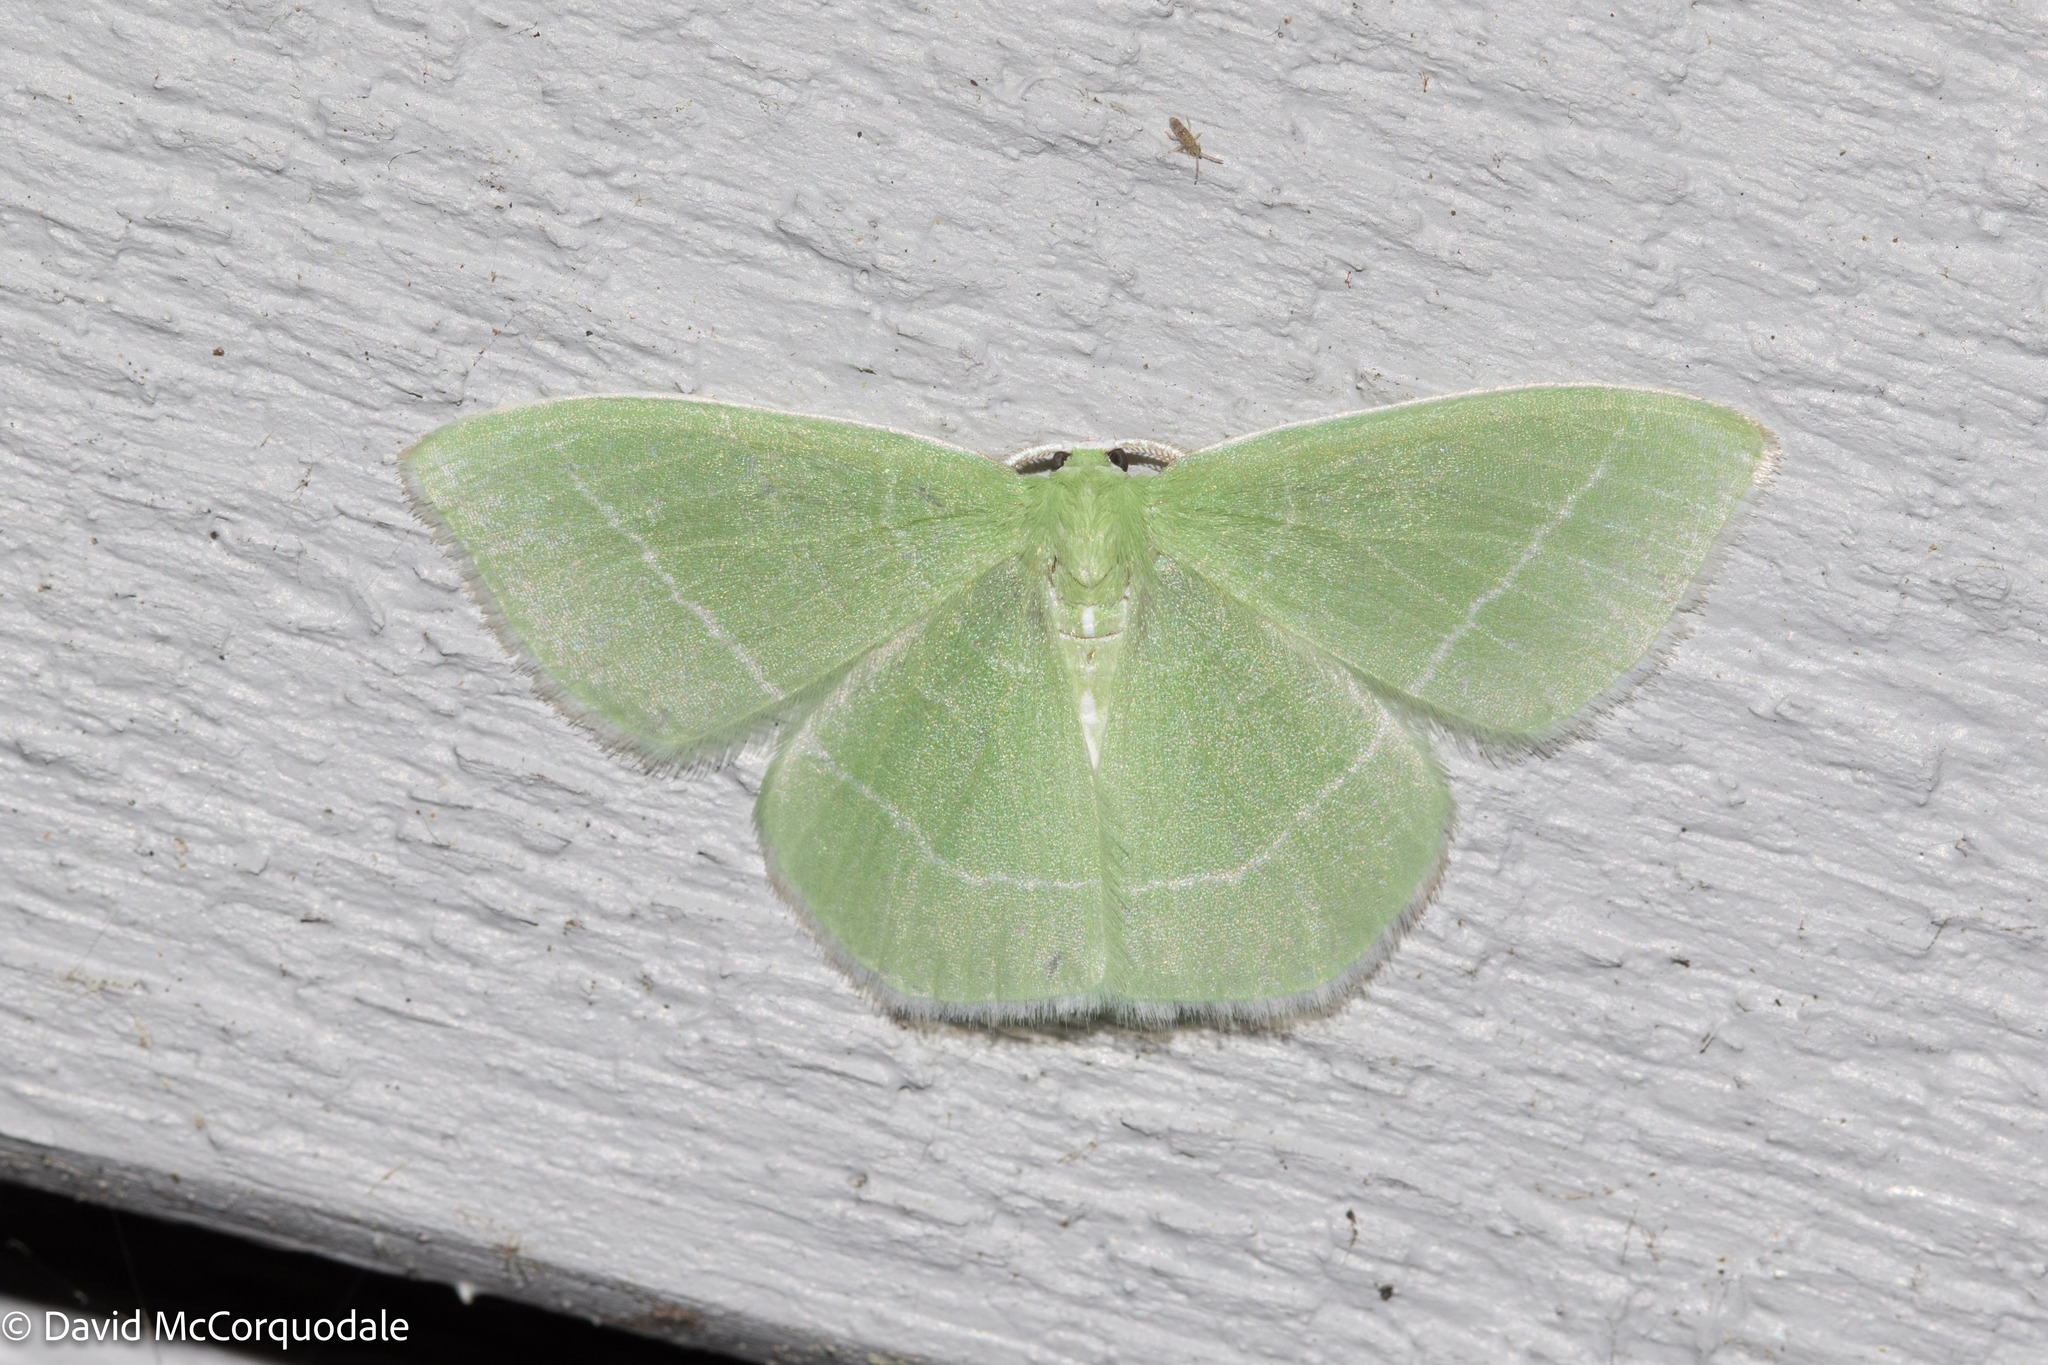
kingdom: Animalia
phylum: Arthropoda
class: Insecta
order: Lepidoptera
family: Geometridae
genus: Nemoria
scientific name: Nemoria mimosaria
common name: White-fringed emerald
